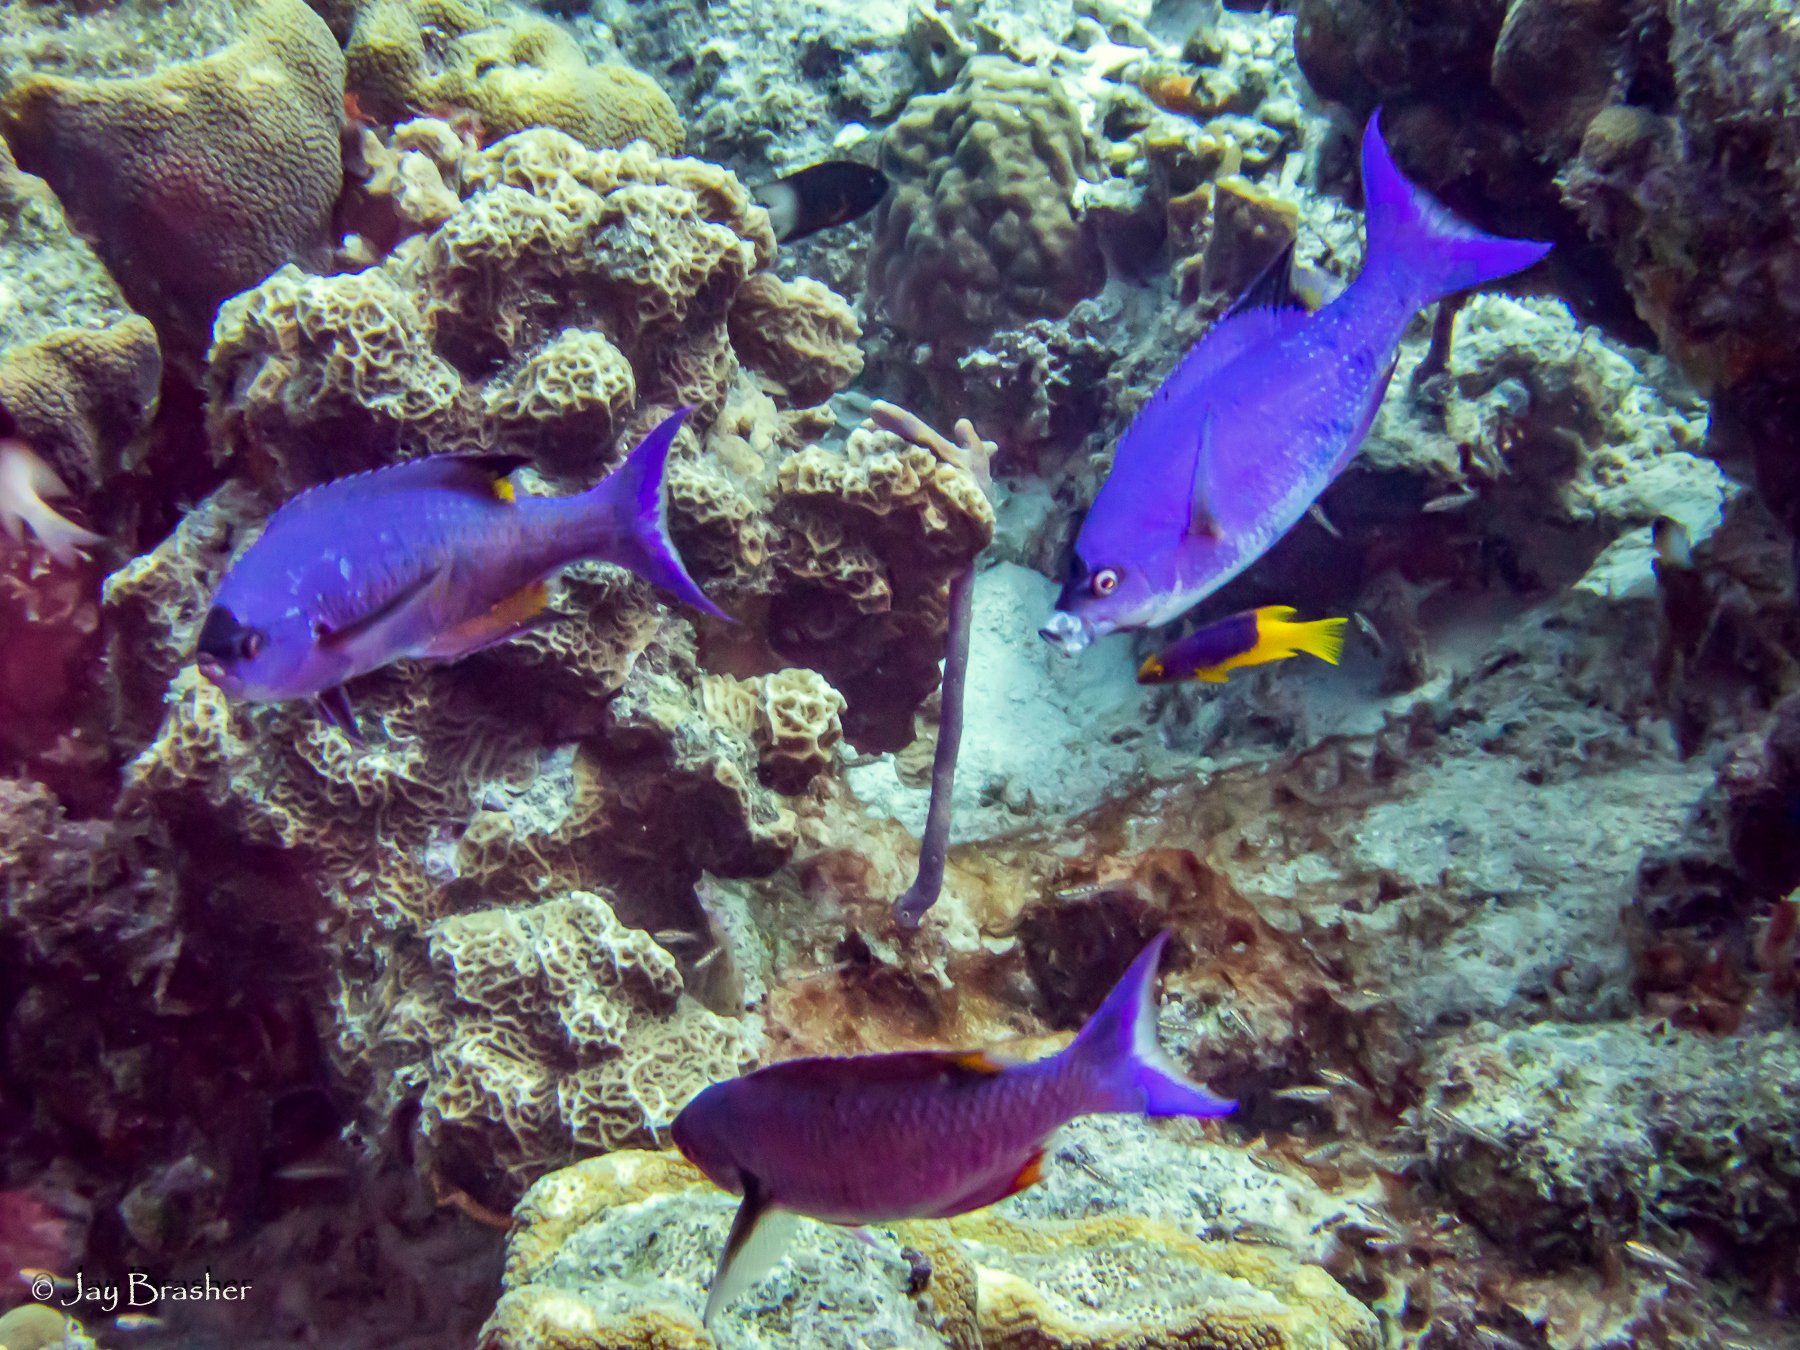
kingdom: Animalia
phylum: Chordata
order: Perciformes
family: Labridae
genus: Bodianus
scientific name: Bodianus
